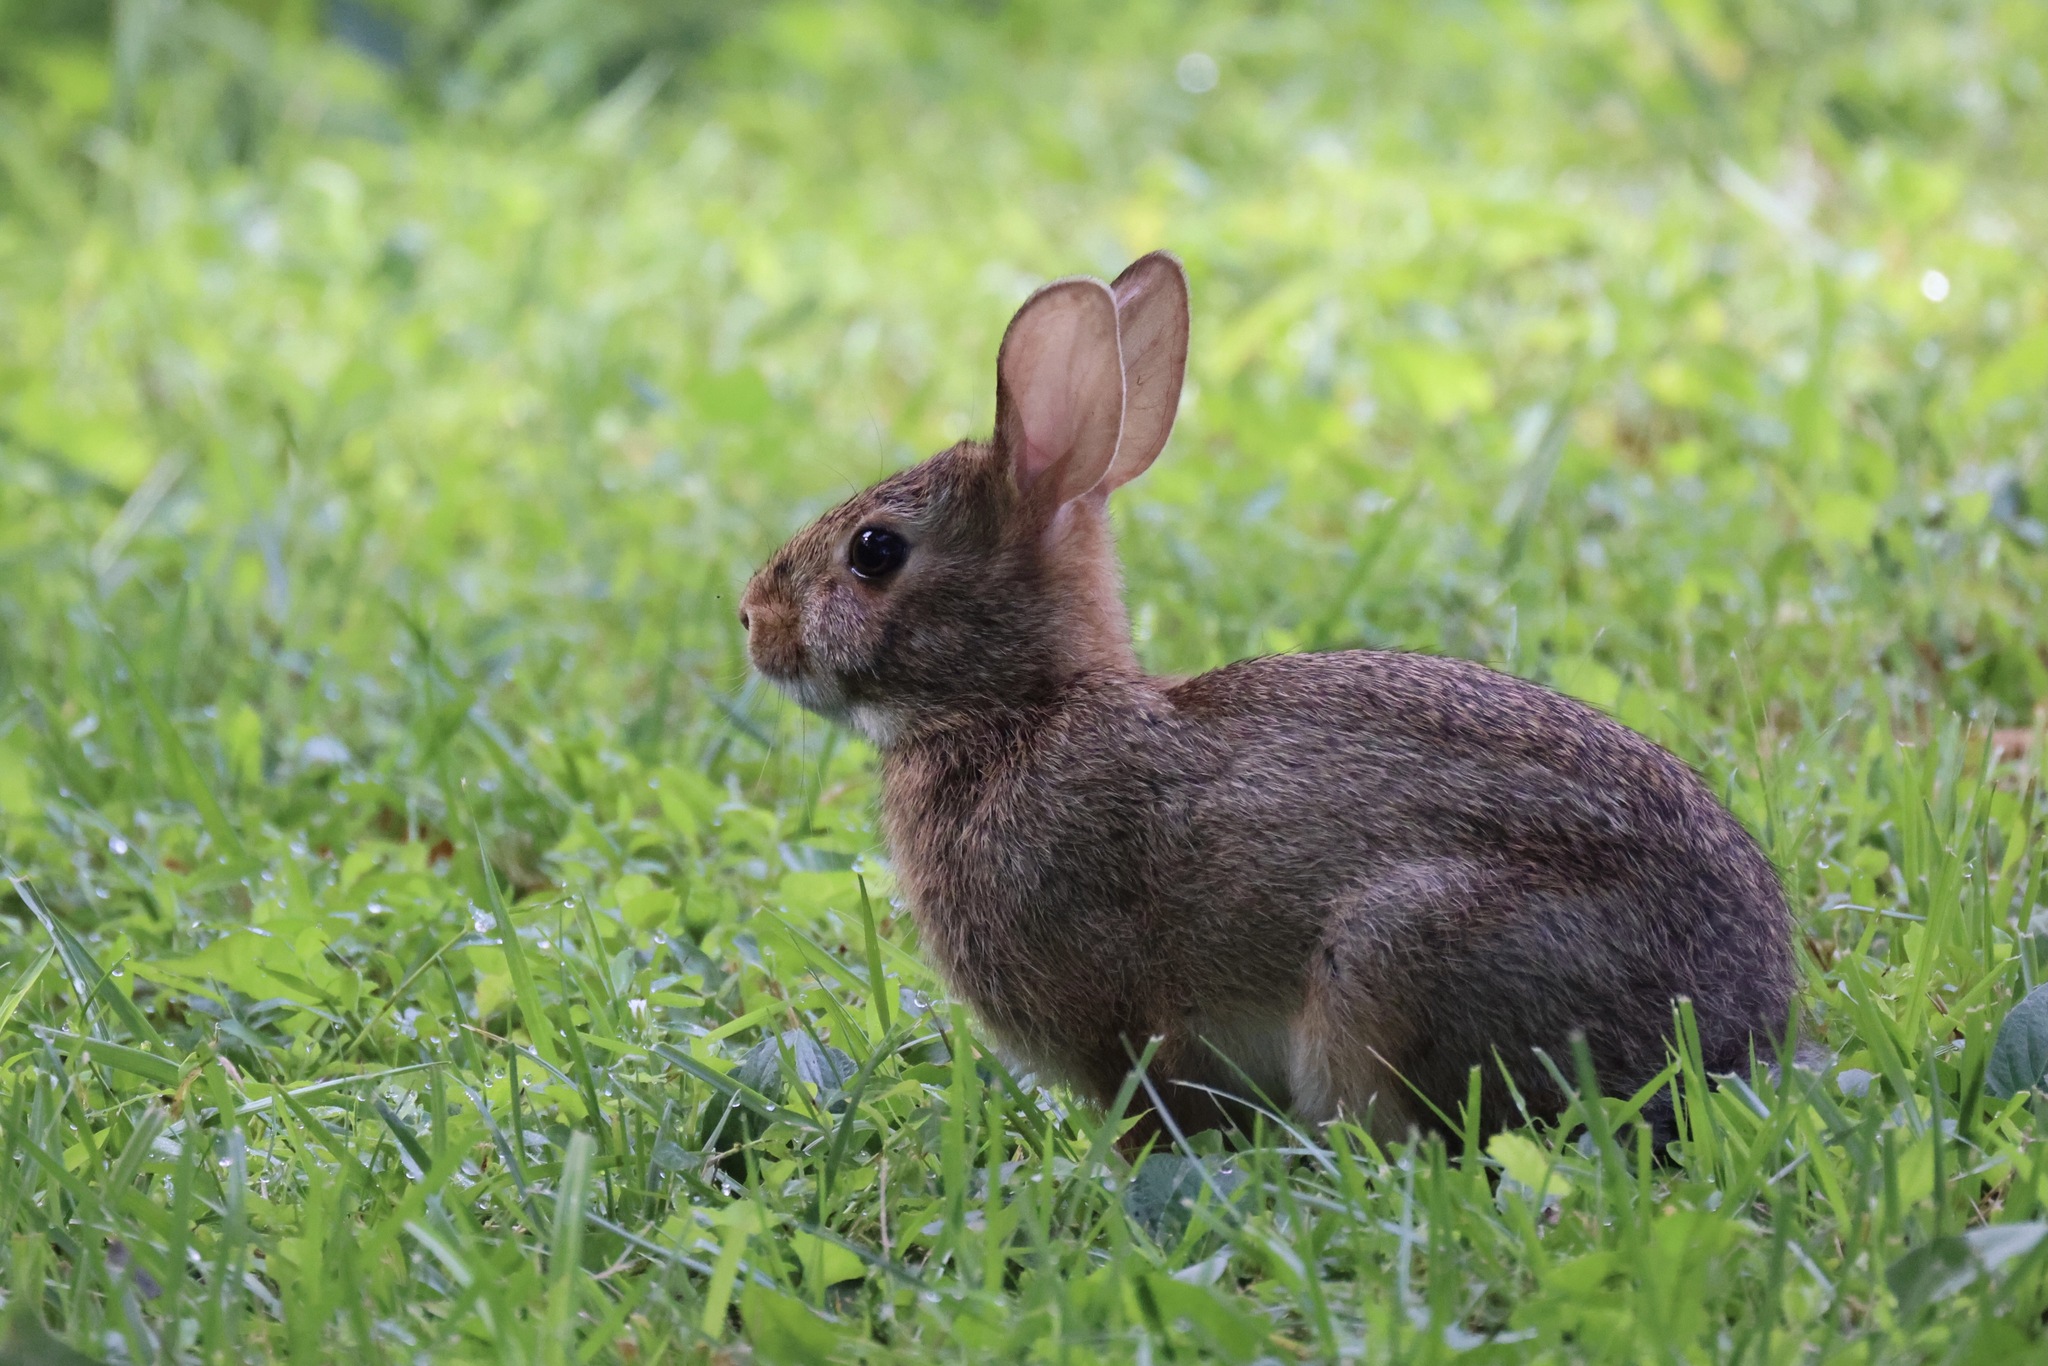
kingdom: Animalia
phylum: Chordata
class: Mammalia
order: Lagomorpha
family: Leporidae
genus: Sylvilagus
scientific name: Sylvilagus floridanus
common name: Eastern cottontail
